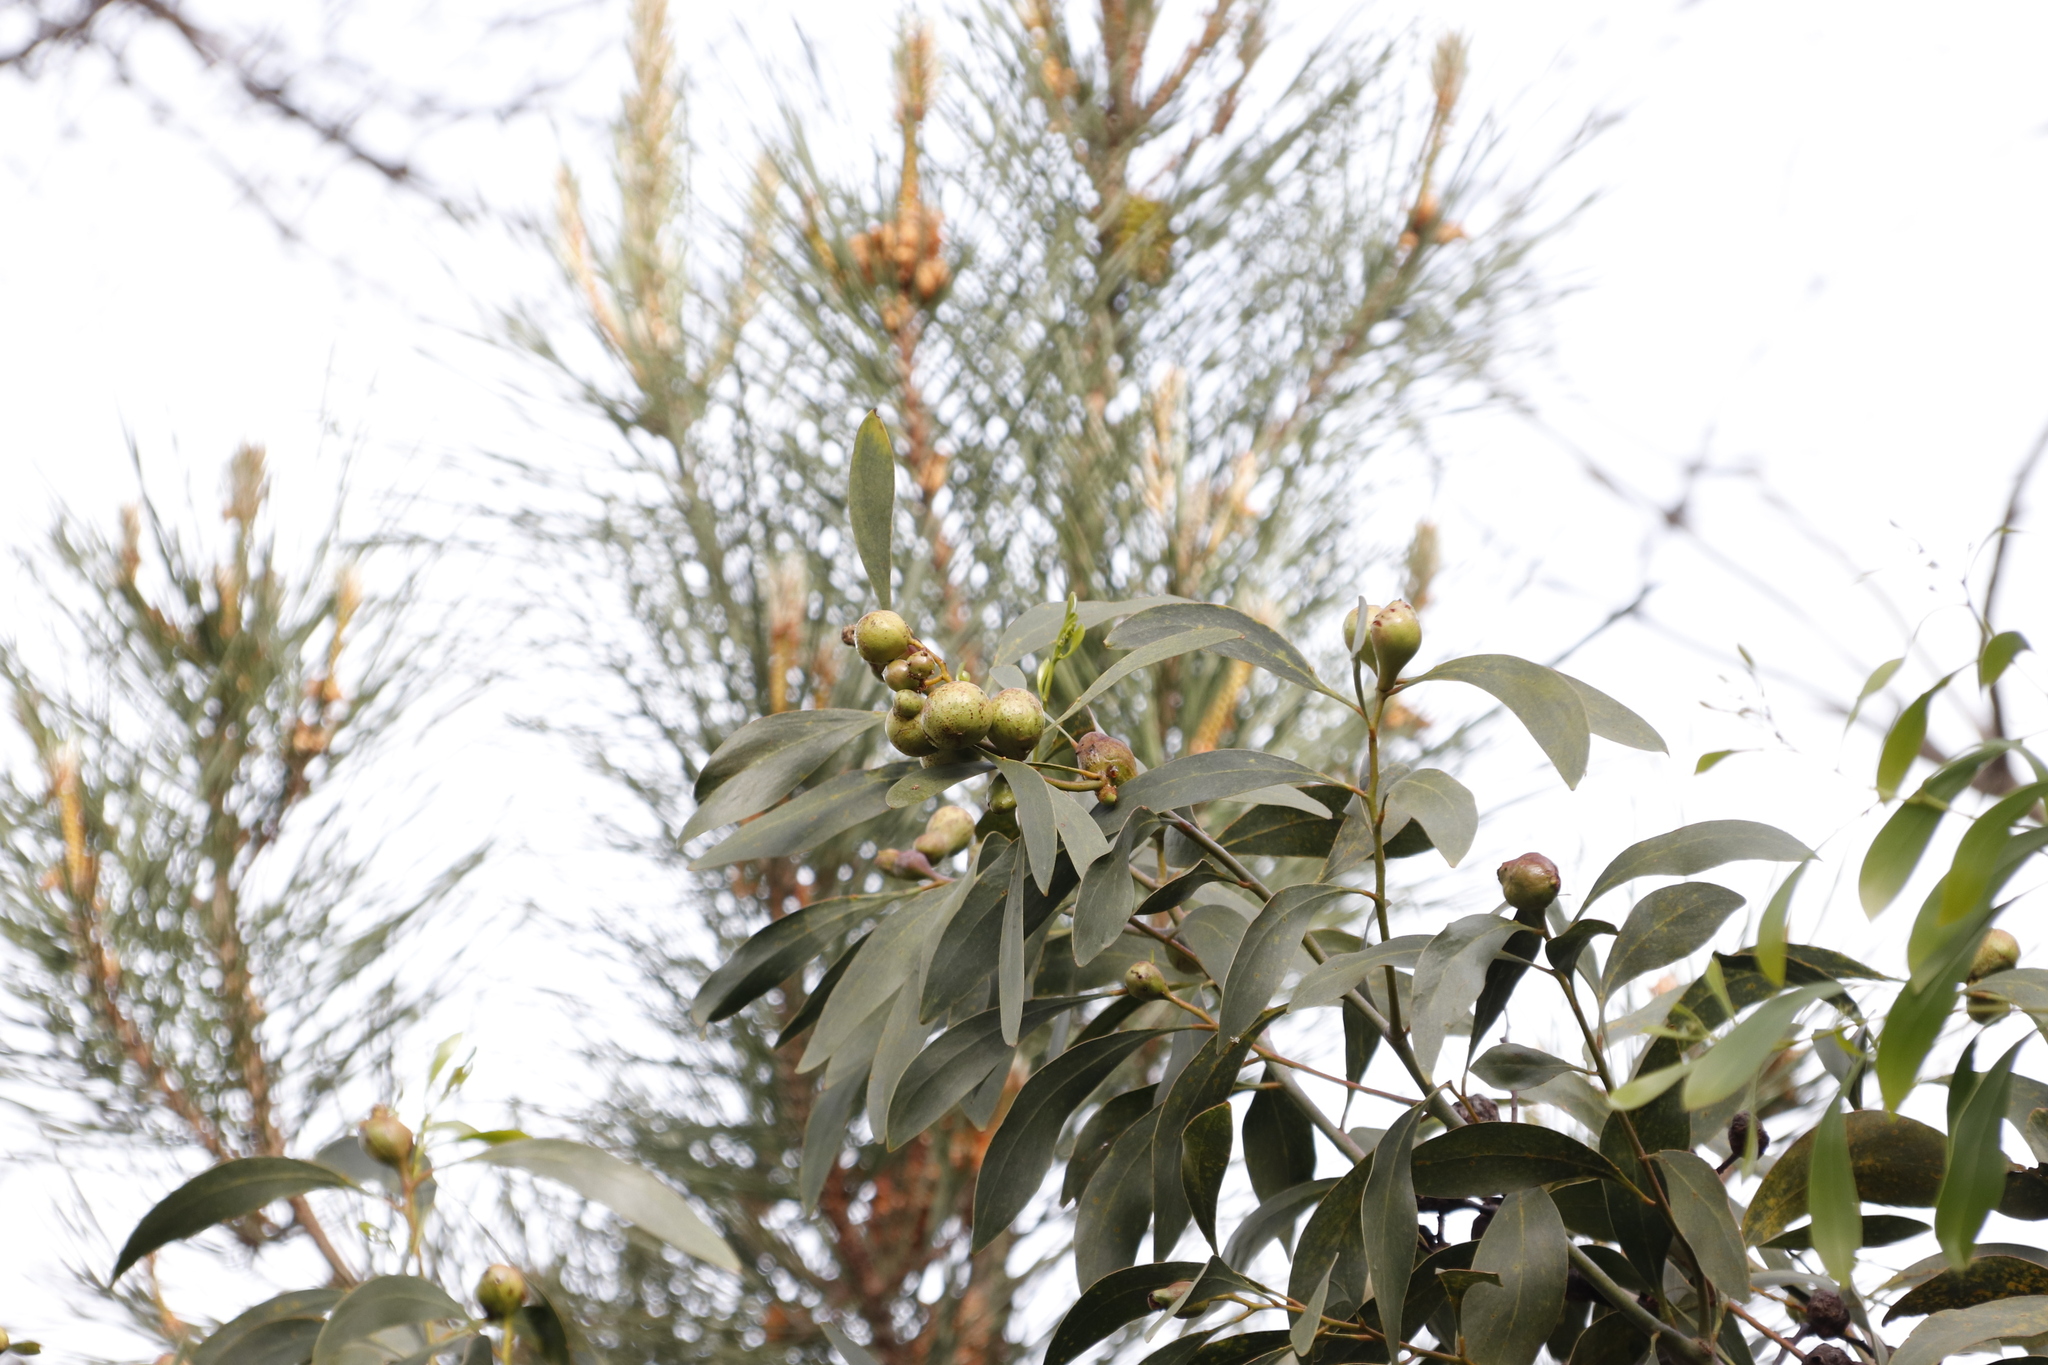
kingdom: Plantae
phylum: Tracheophyta
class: Magnoliopsida
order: Fabales
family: Fabaceae
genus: Acacia
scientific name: Acacia pycnantha
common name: Golden wattle
